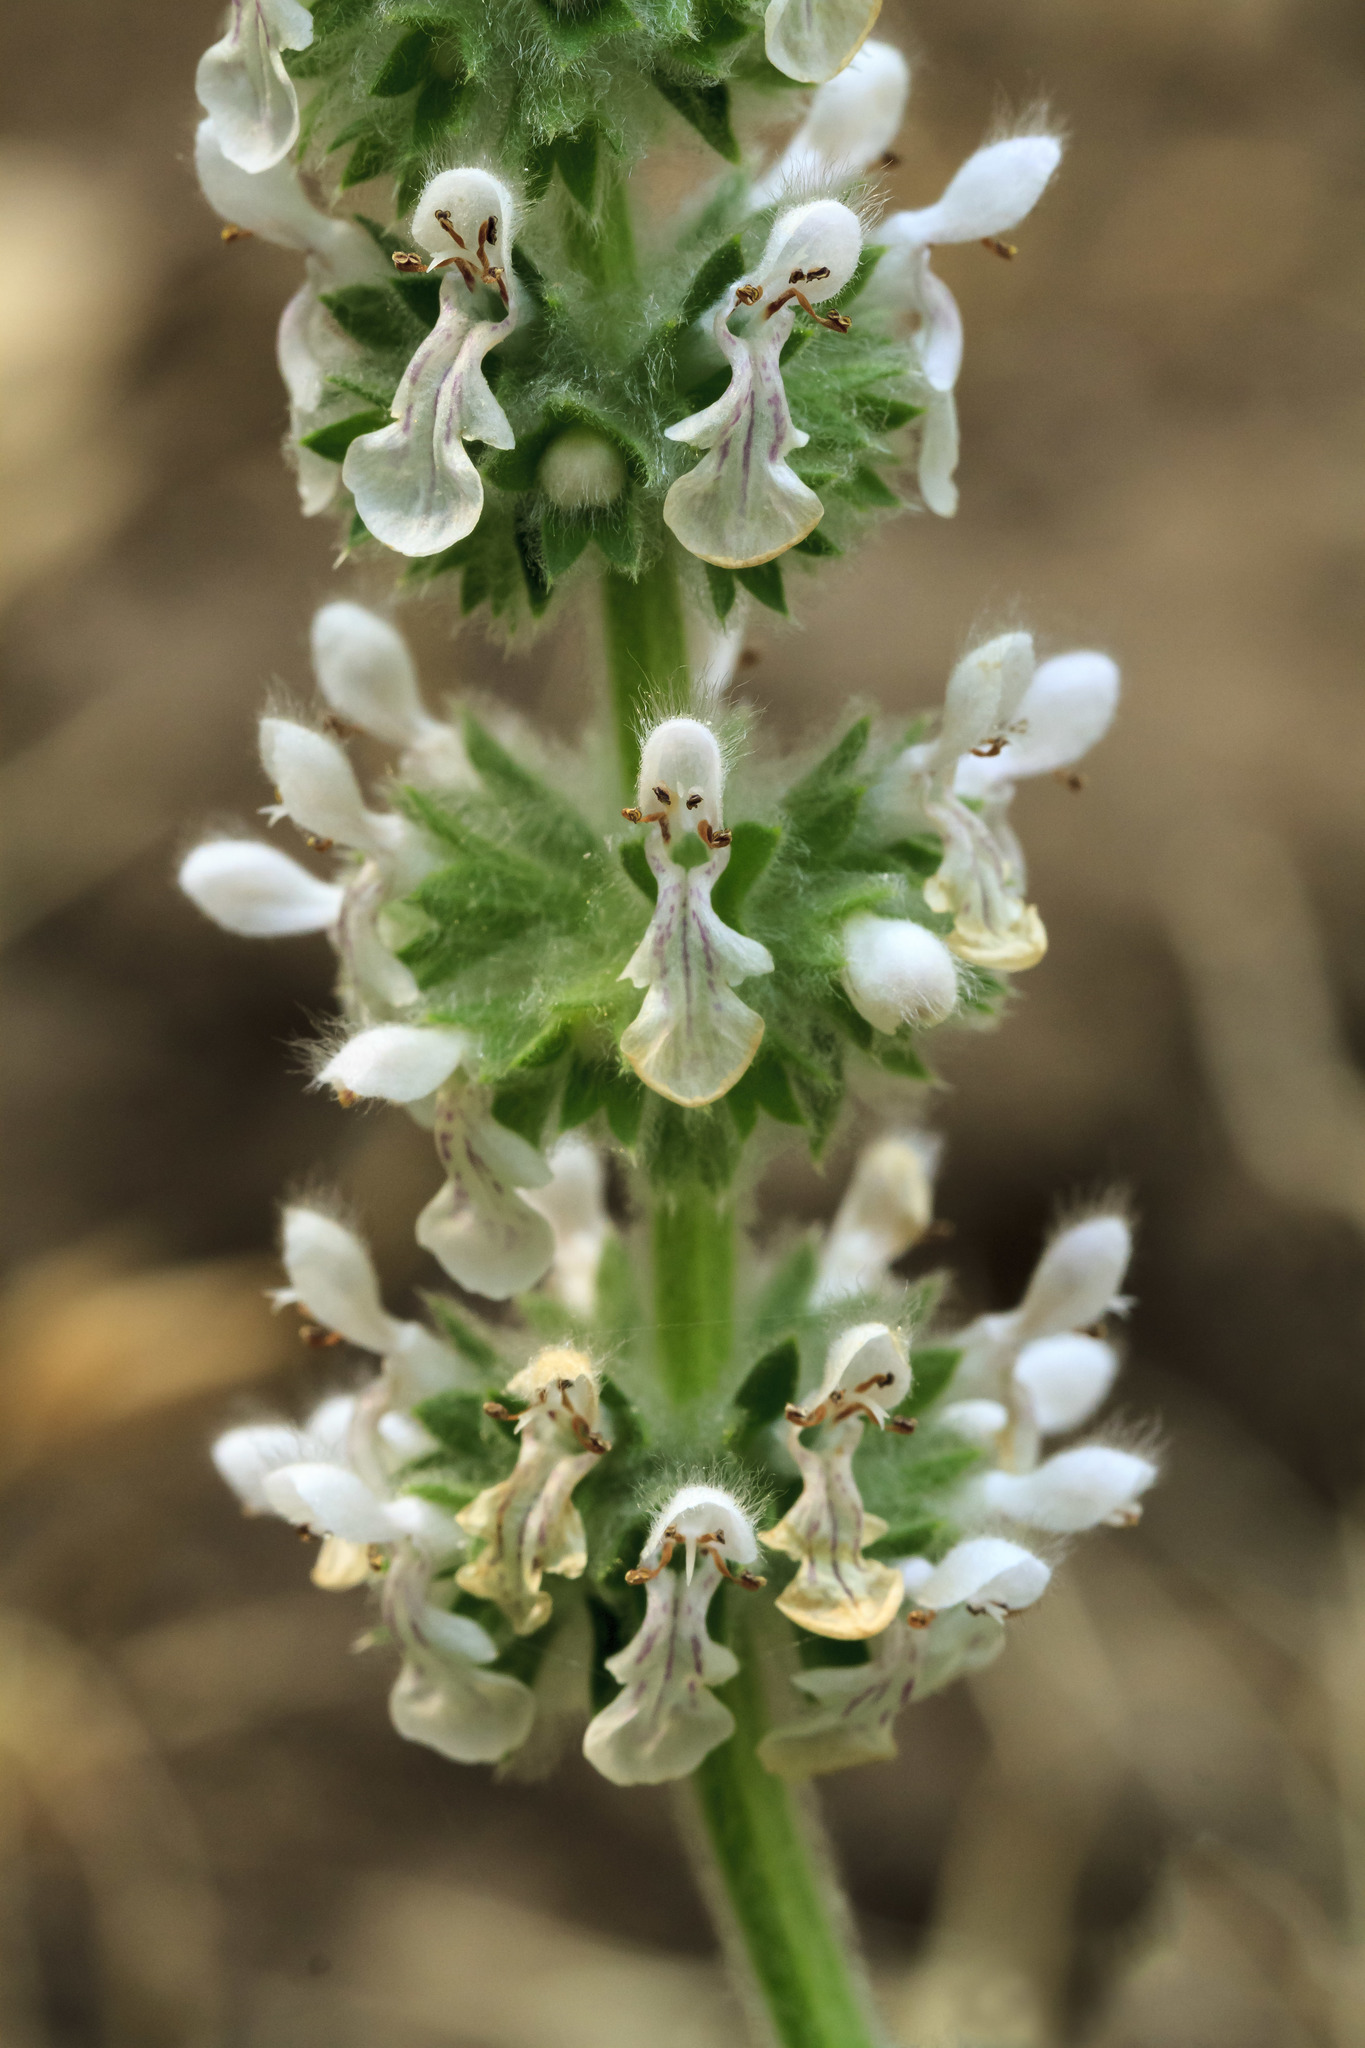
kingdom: Plantae
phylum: Tracheophyta
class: Magnoliopsida
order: Lamiales
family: Lamiaceae
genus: Stachys
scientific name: Stachys albens
